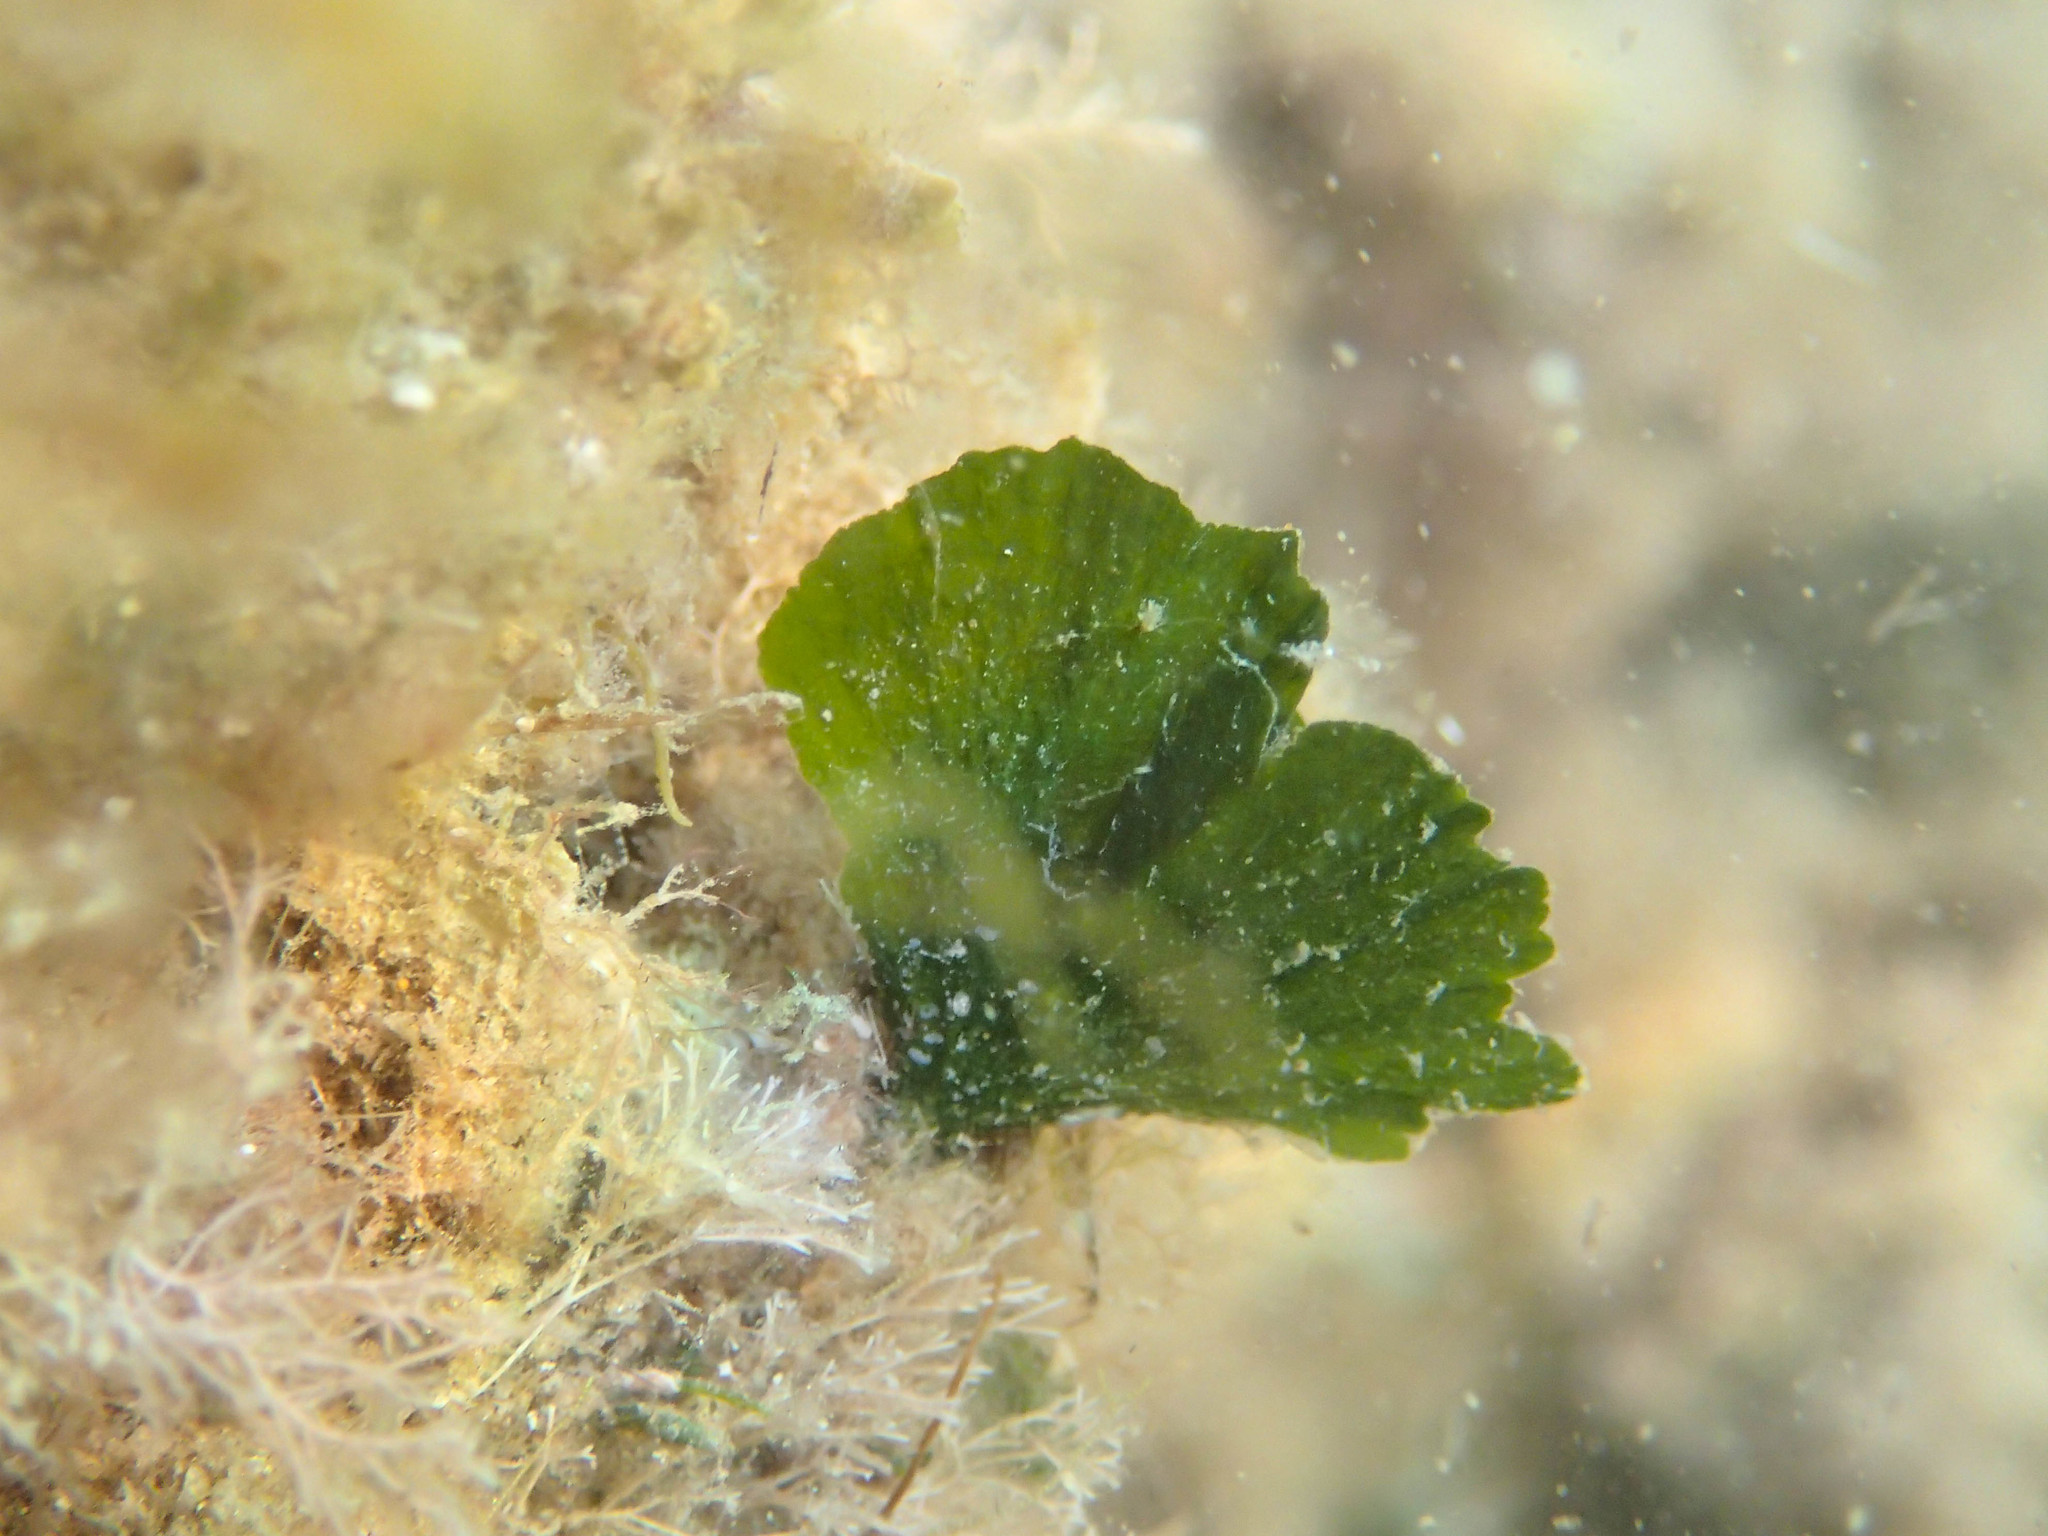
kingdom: Plantae
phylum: Chlorophyta
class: Ulvophyceae
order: Bryopsidales
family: Codiaceae
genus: Codium
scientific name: Codium Flabellia petiolata
